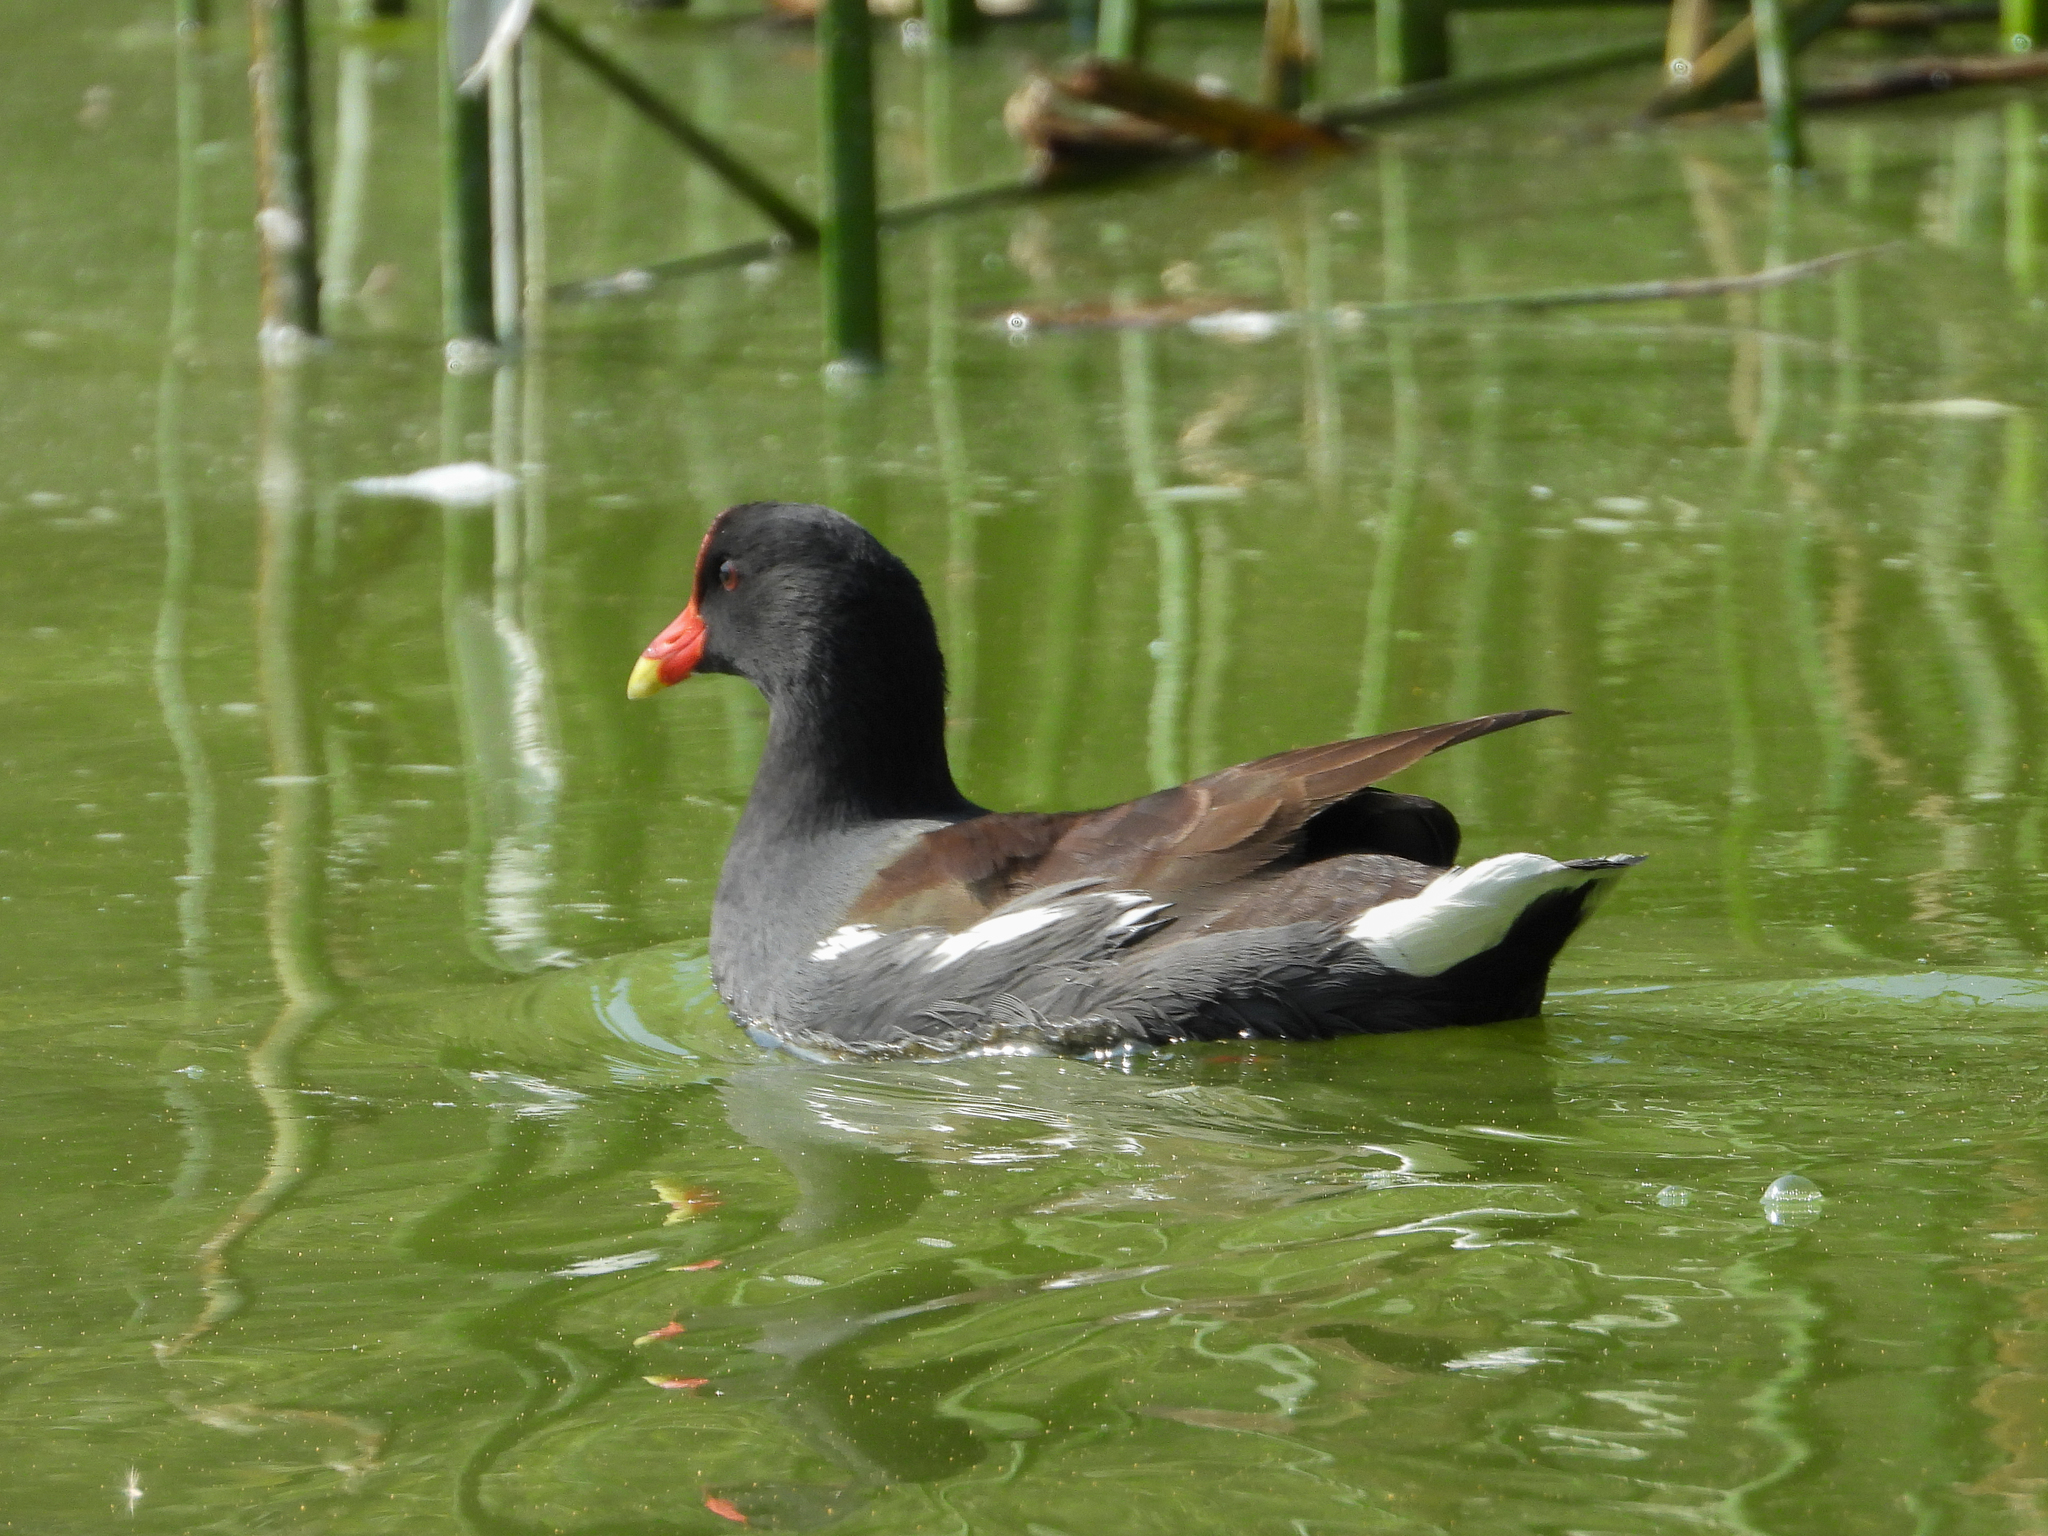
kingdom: Animalia
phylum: Chordata
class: Aves
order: Gruiformes
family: Rallidae
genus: Gallinula
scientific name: Gallinula chloropus
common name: Common moorhen
